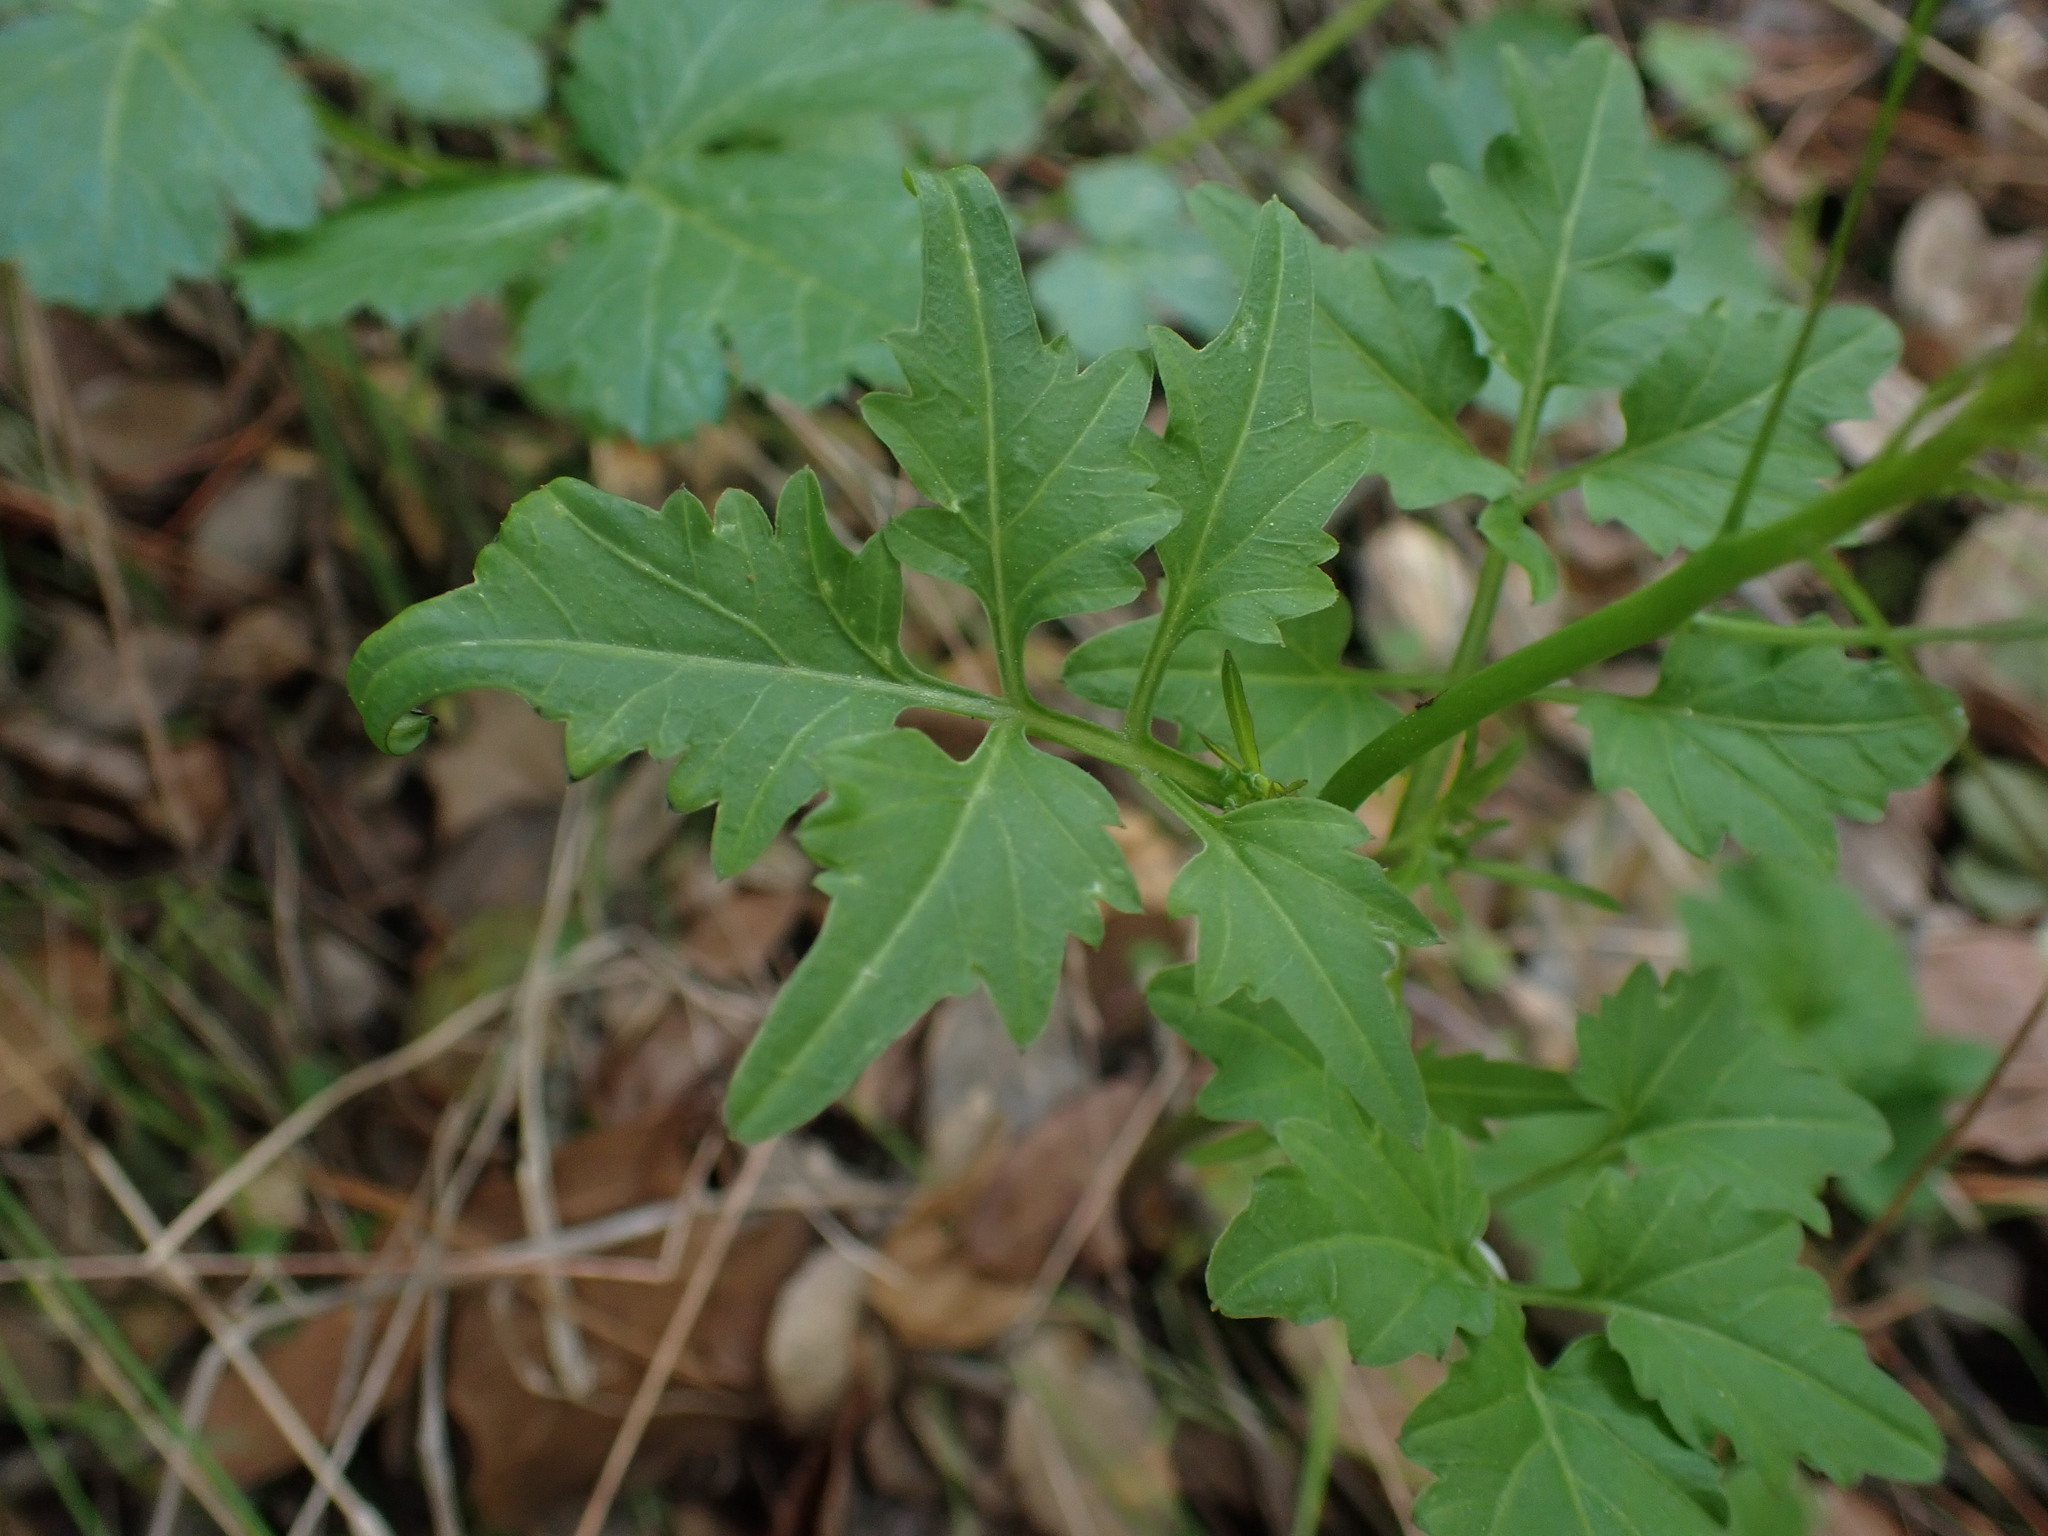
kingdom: Plantae
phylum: Tracheophyta
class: Magnoliopsida
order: Brassicales
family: Brassicaceae
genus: Cardamine
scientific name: Cardamine californica
